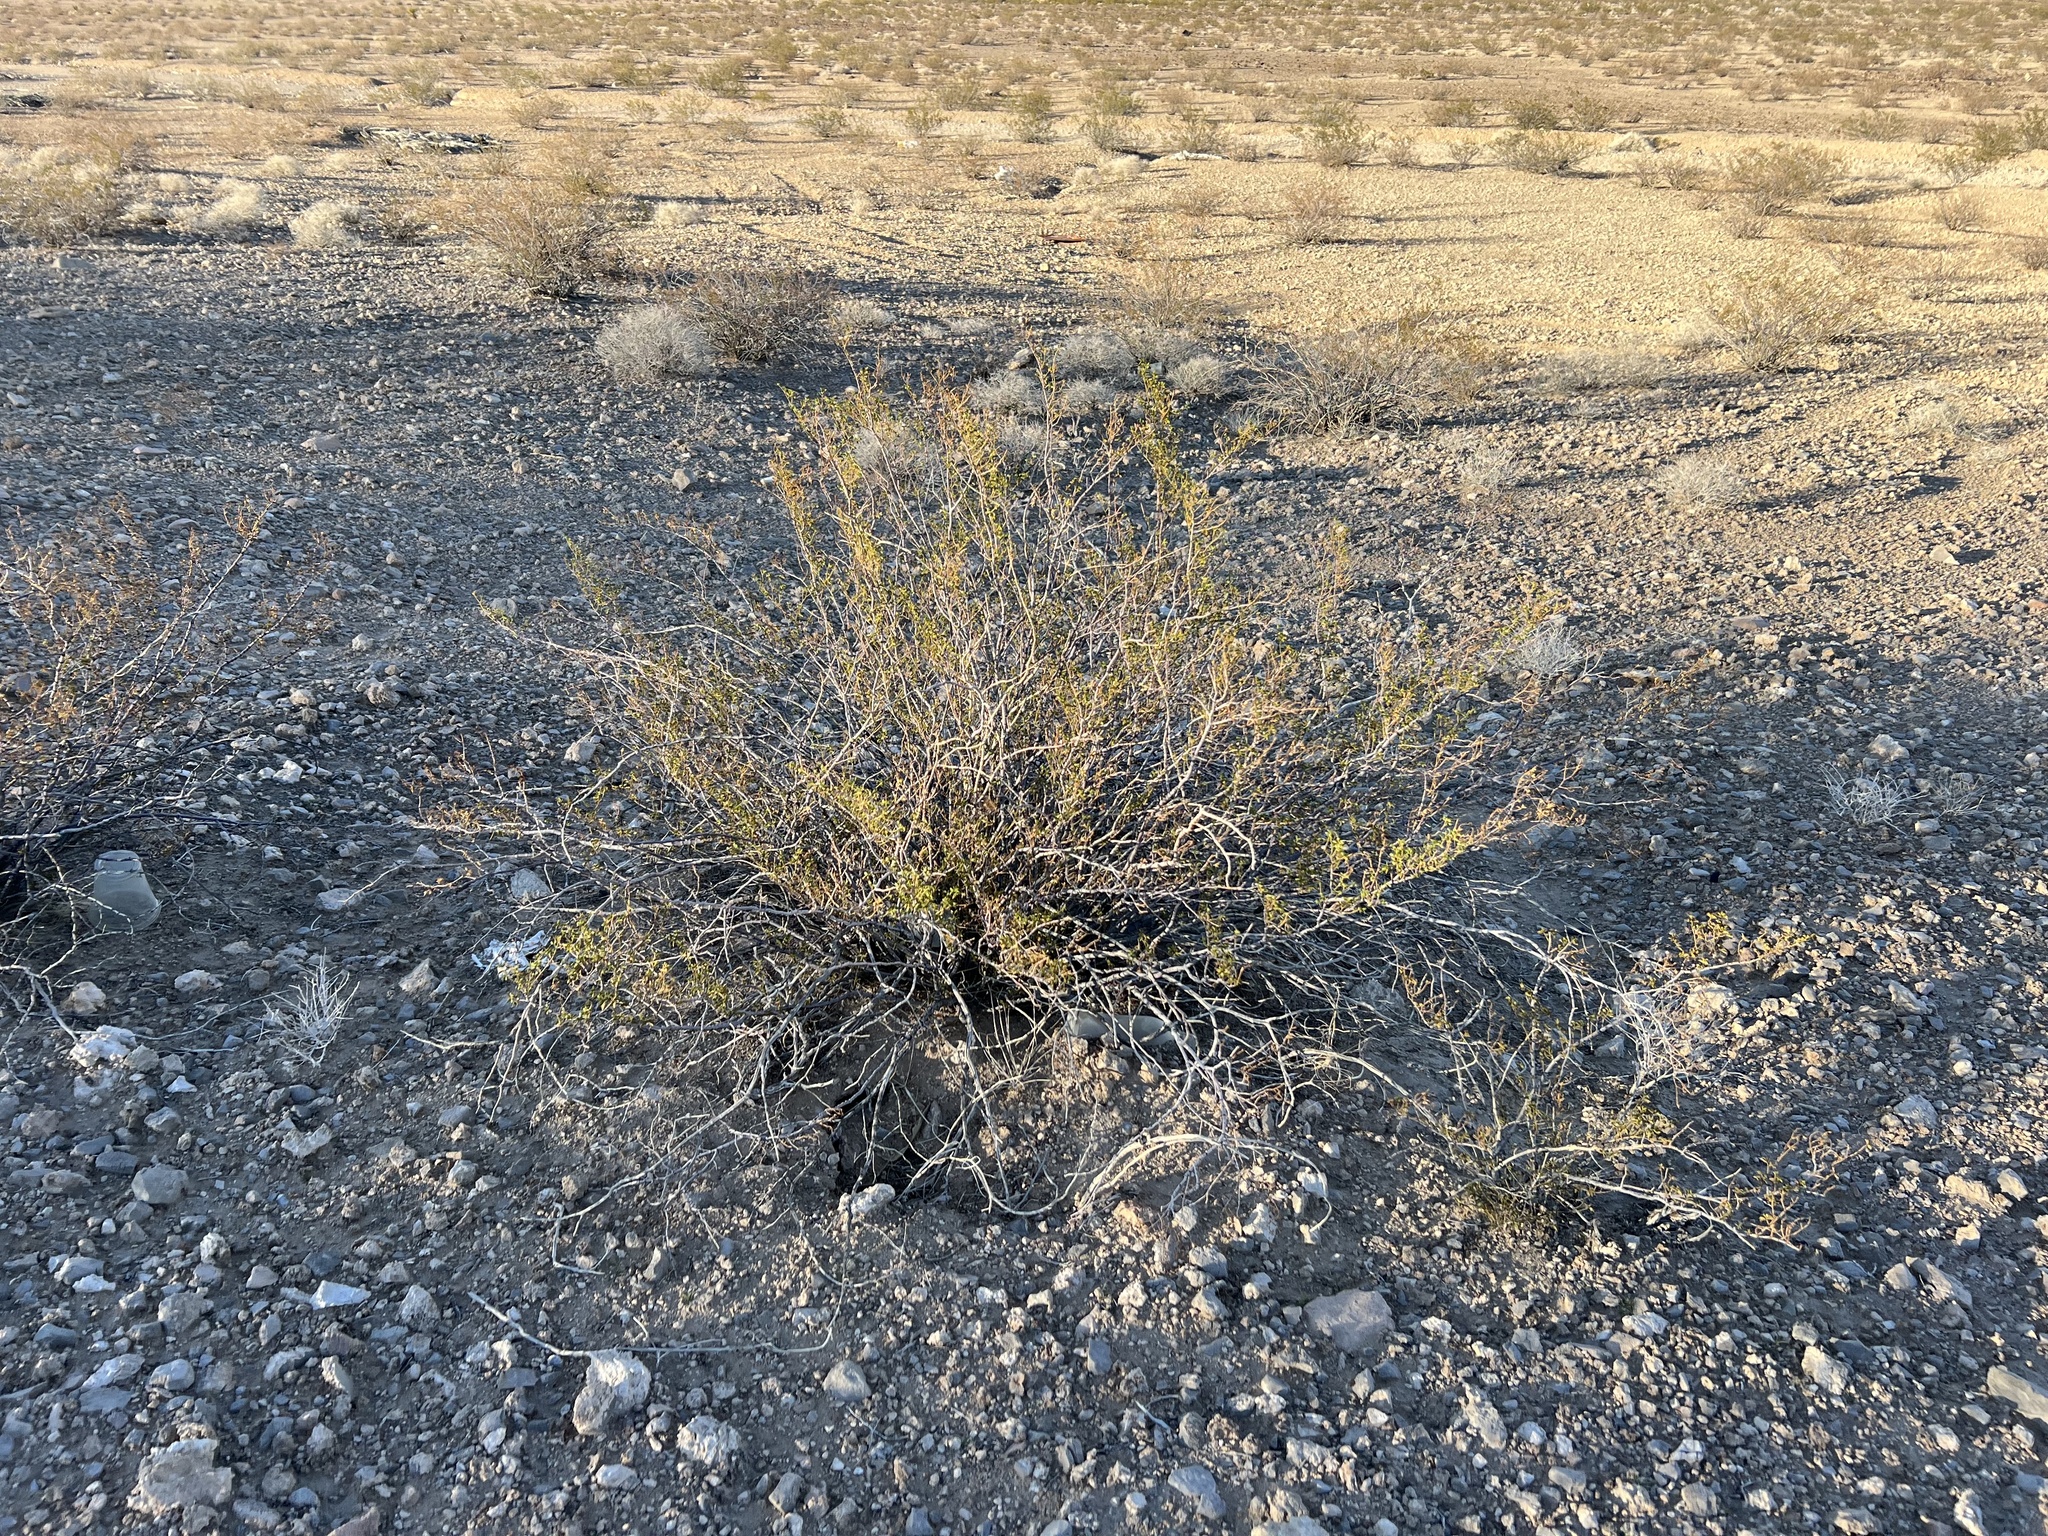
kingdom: Plantae
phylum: Tracheophyta
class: Magnoliopsida
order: Zygophyllales
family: Zygophyllaceae
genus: Larrea
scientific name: Larrea tridentata
